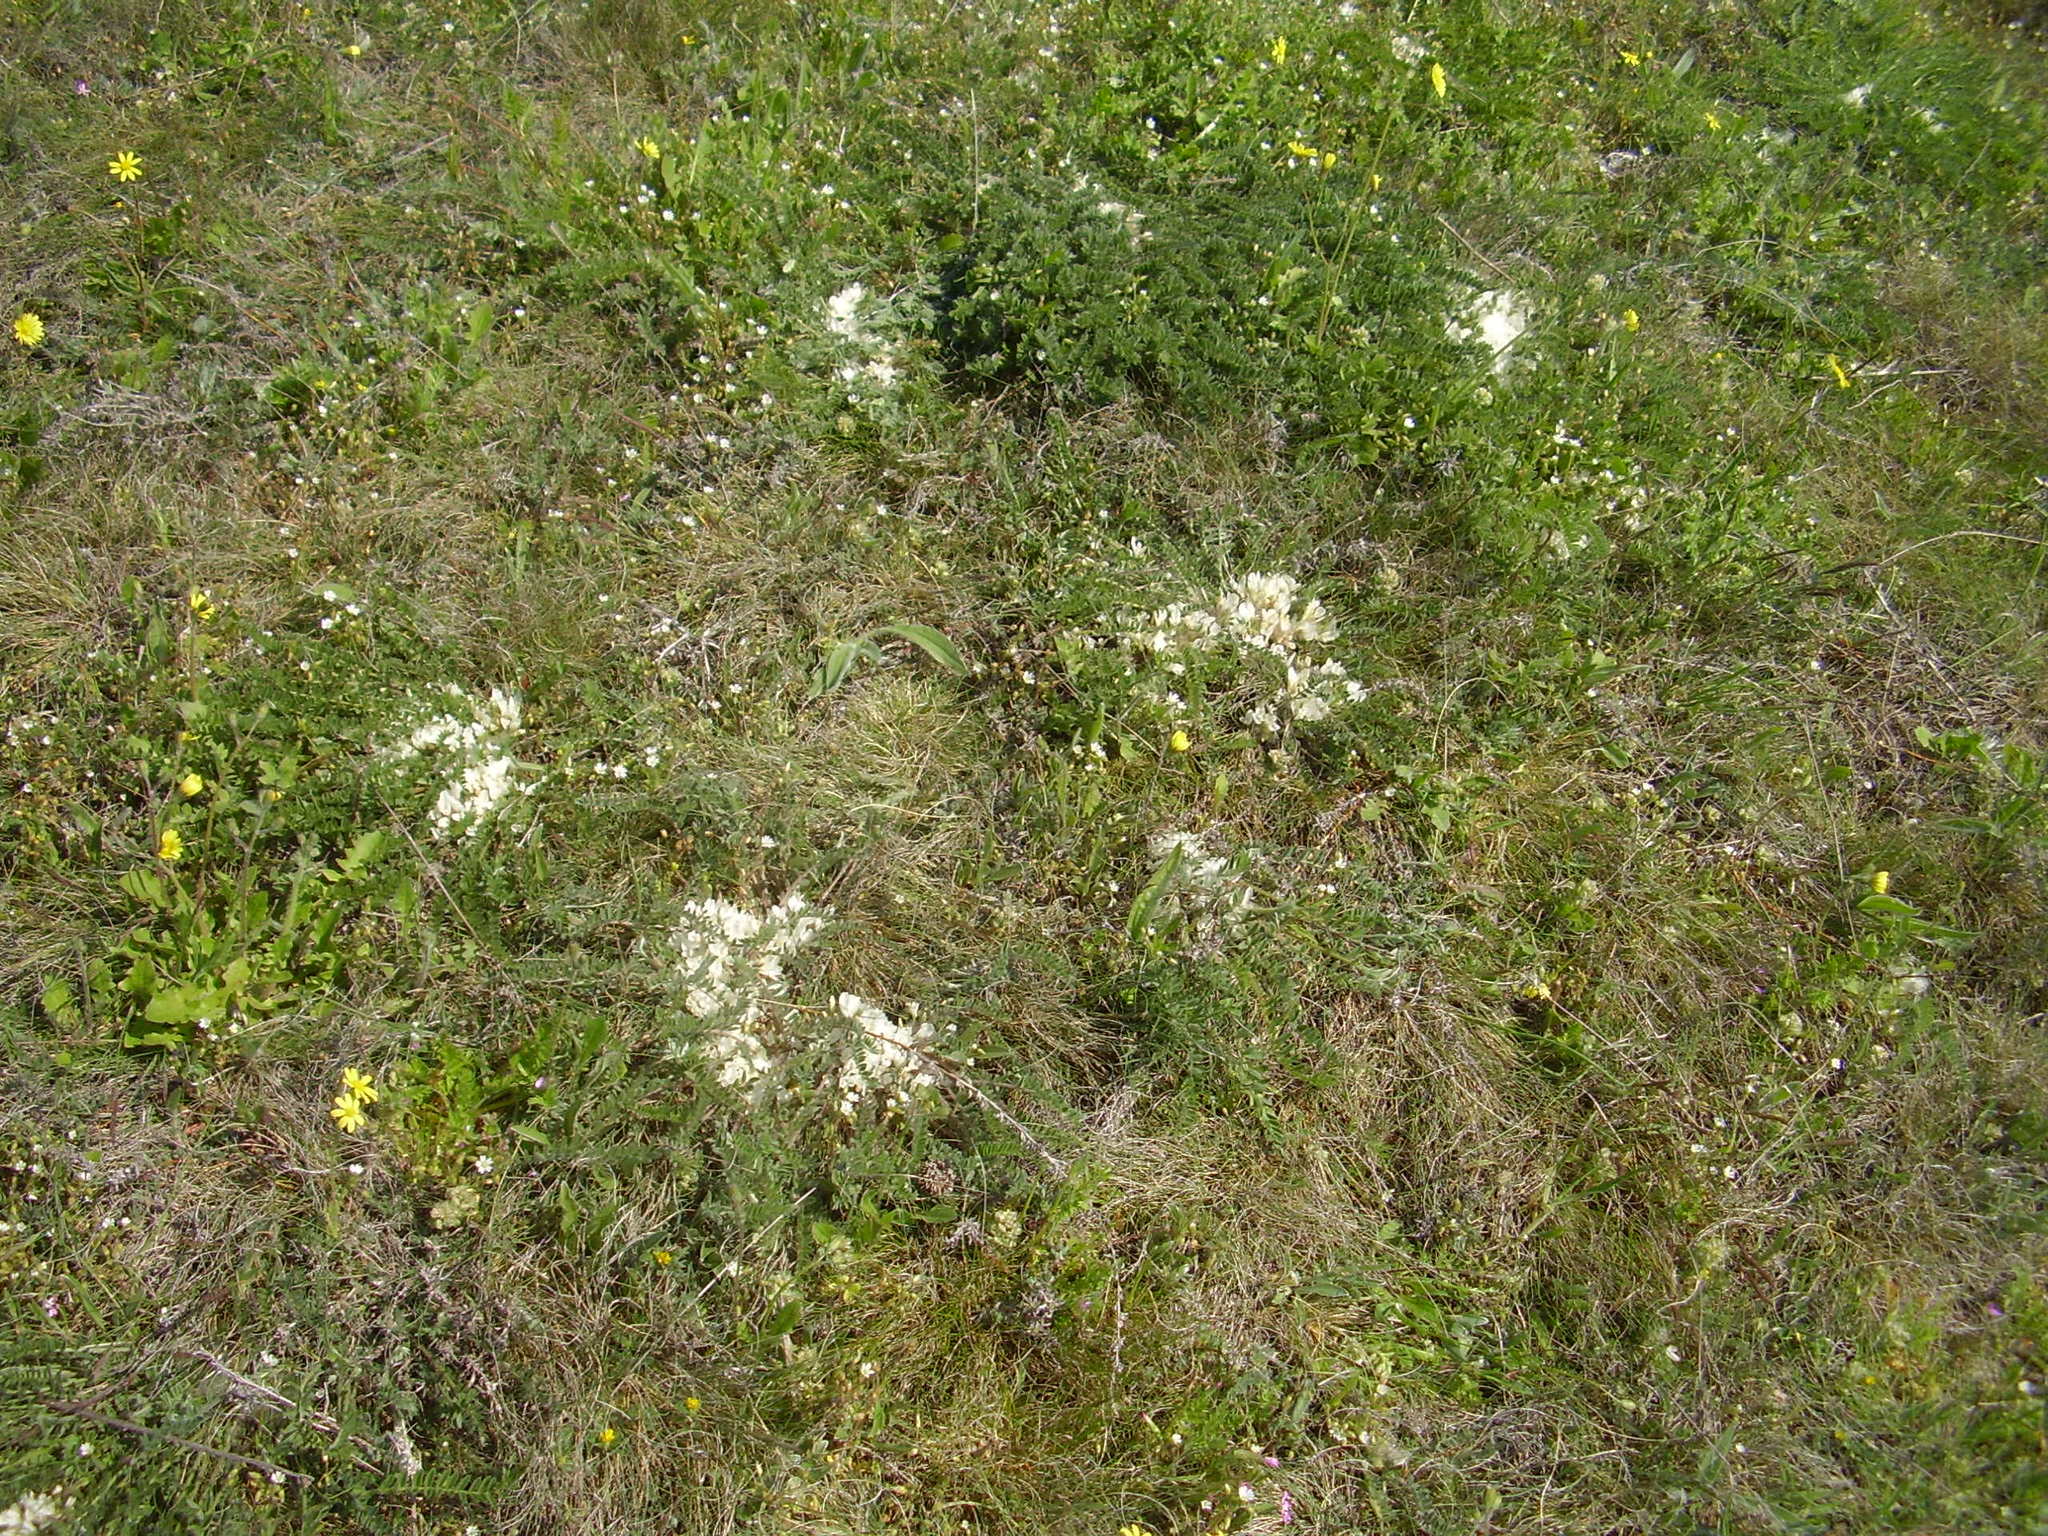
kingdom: Plantae
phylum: Tracheophyta
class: Magnoliopsida
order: Fabales
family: Fabaceae
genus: Astragalus
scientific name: Astragalus rupifragus
